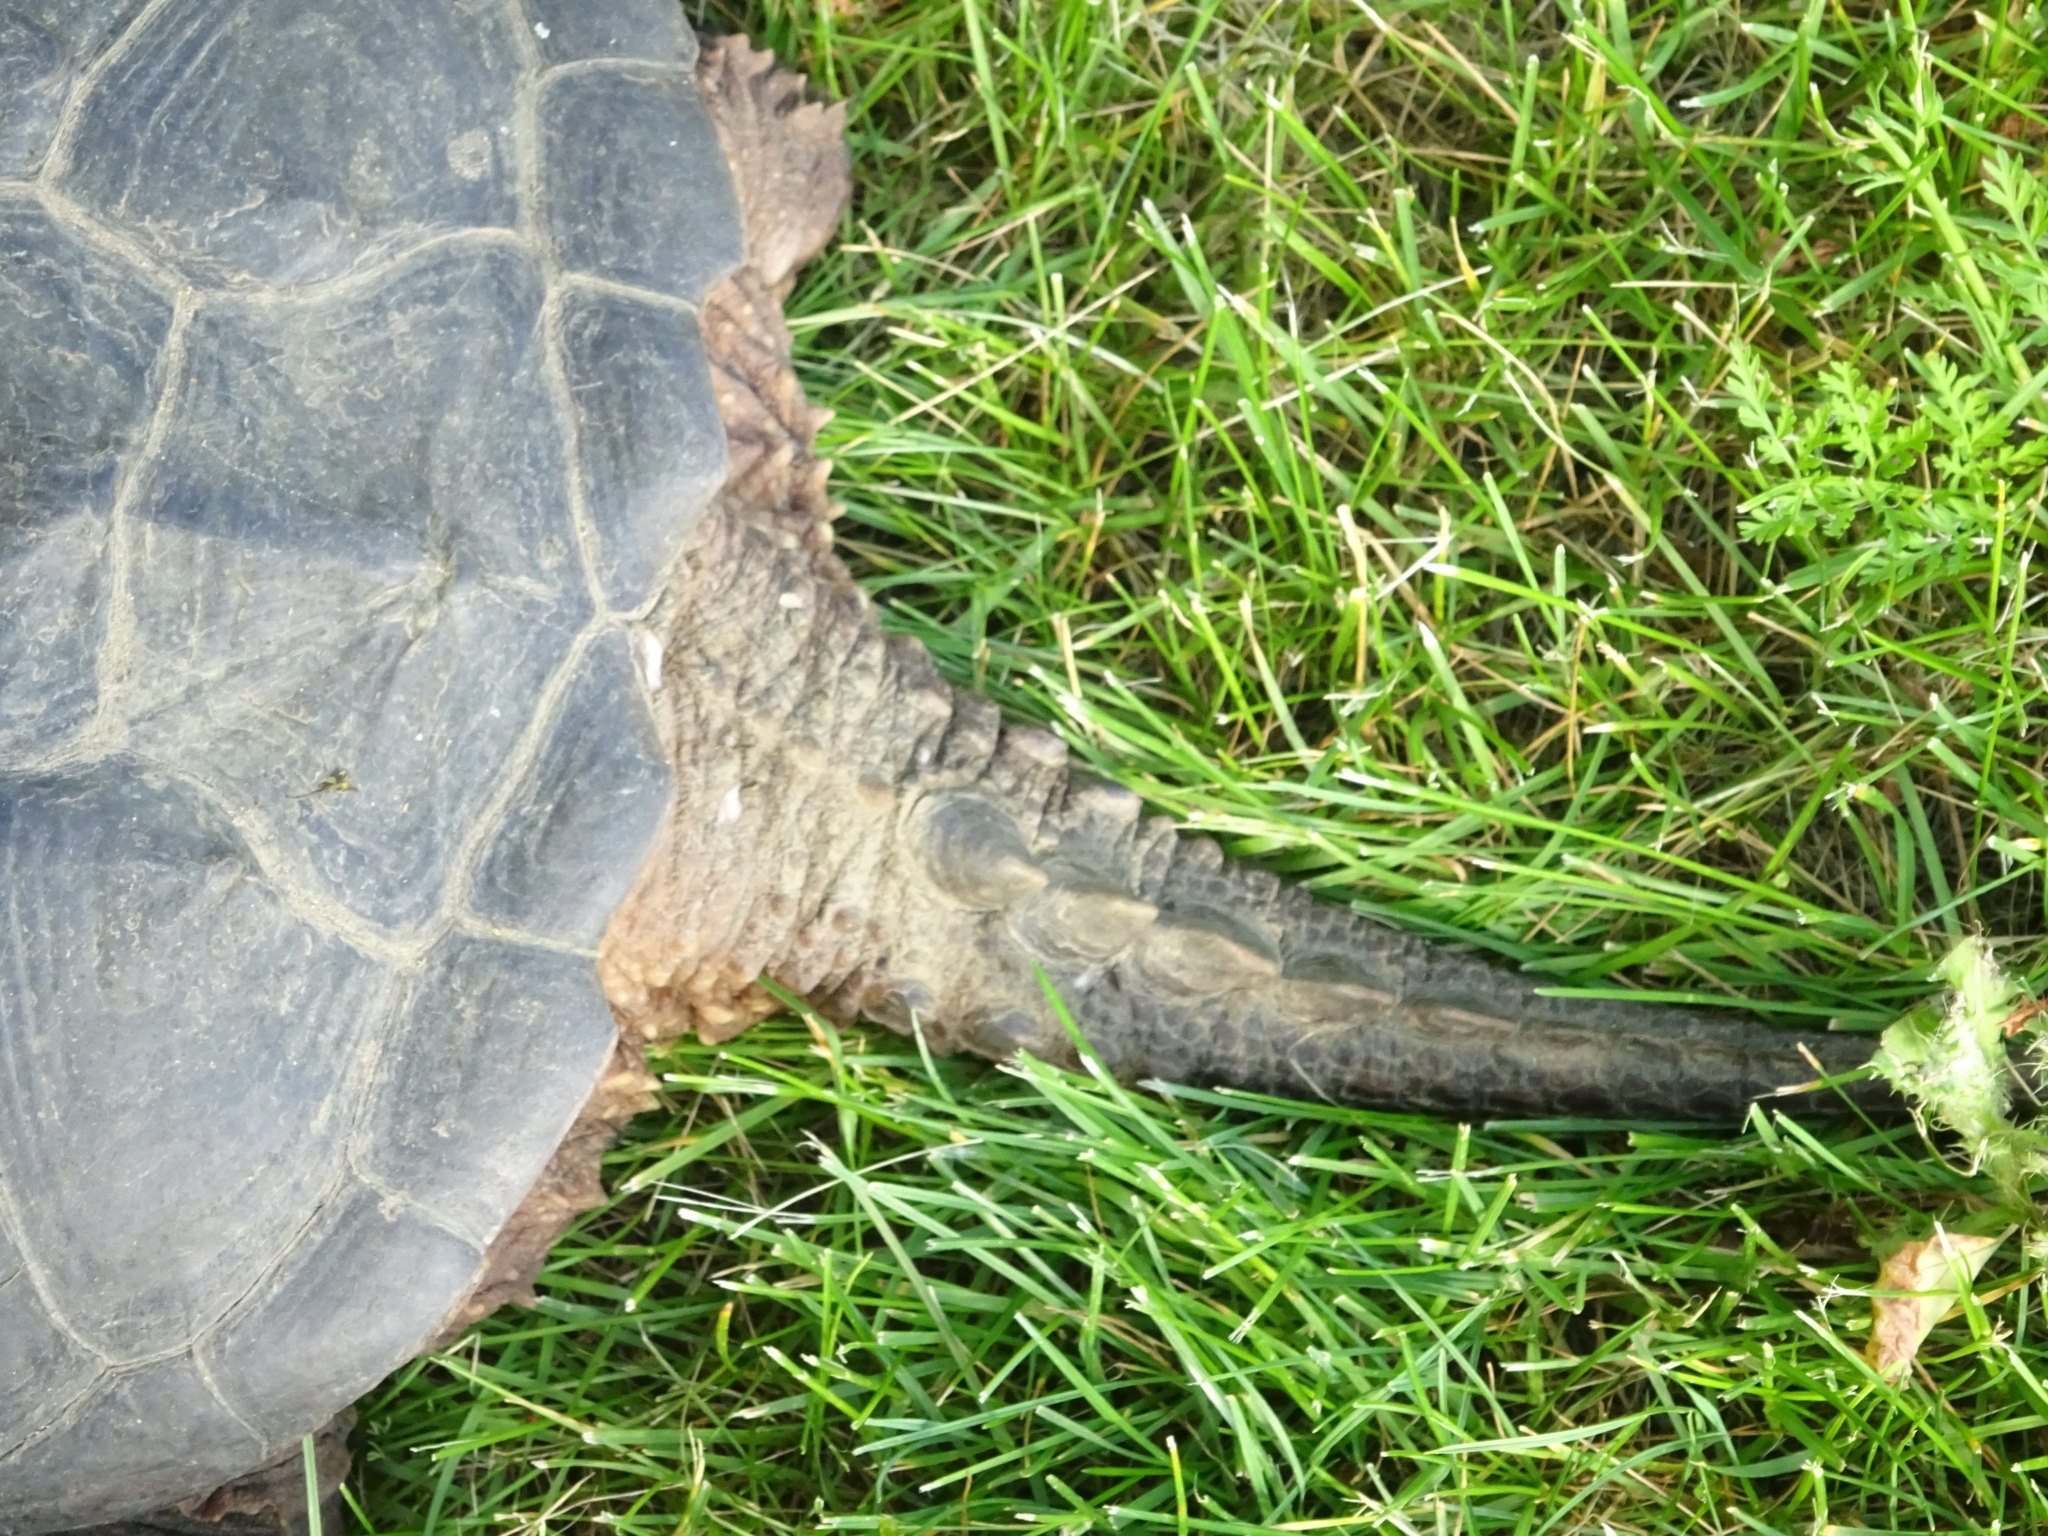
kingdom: Animalia
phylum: Chordata
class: Testudines
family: Chelydridae
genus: Chelydra
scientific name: Chelydra serpentina
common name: Common snapping turtle
